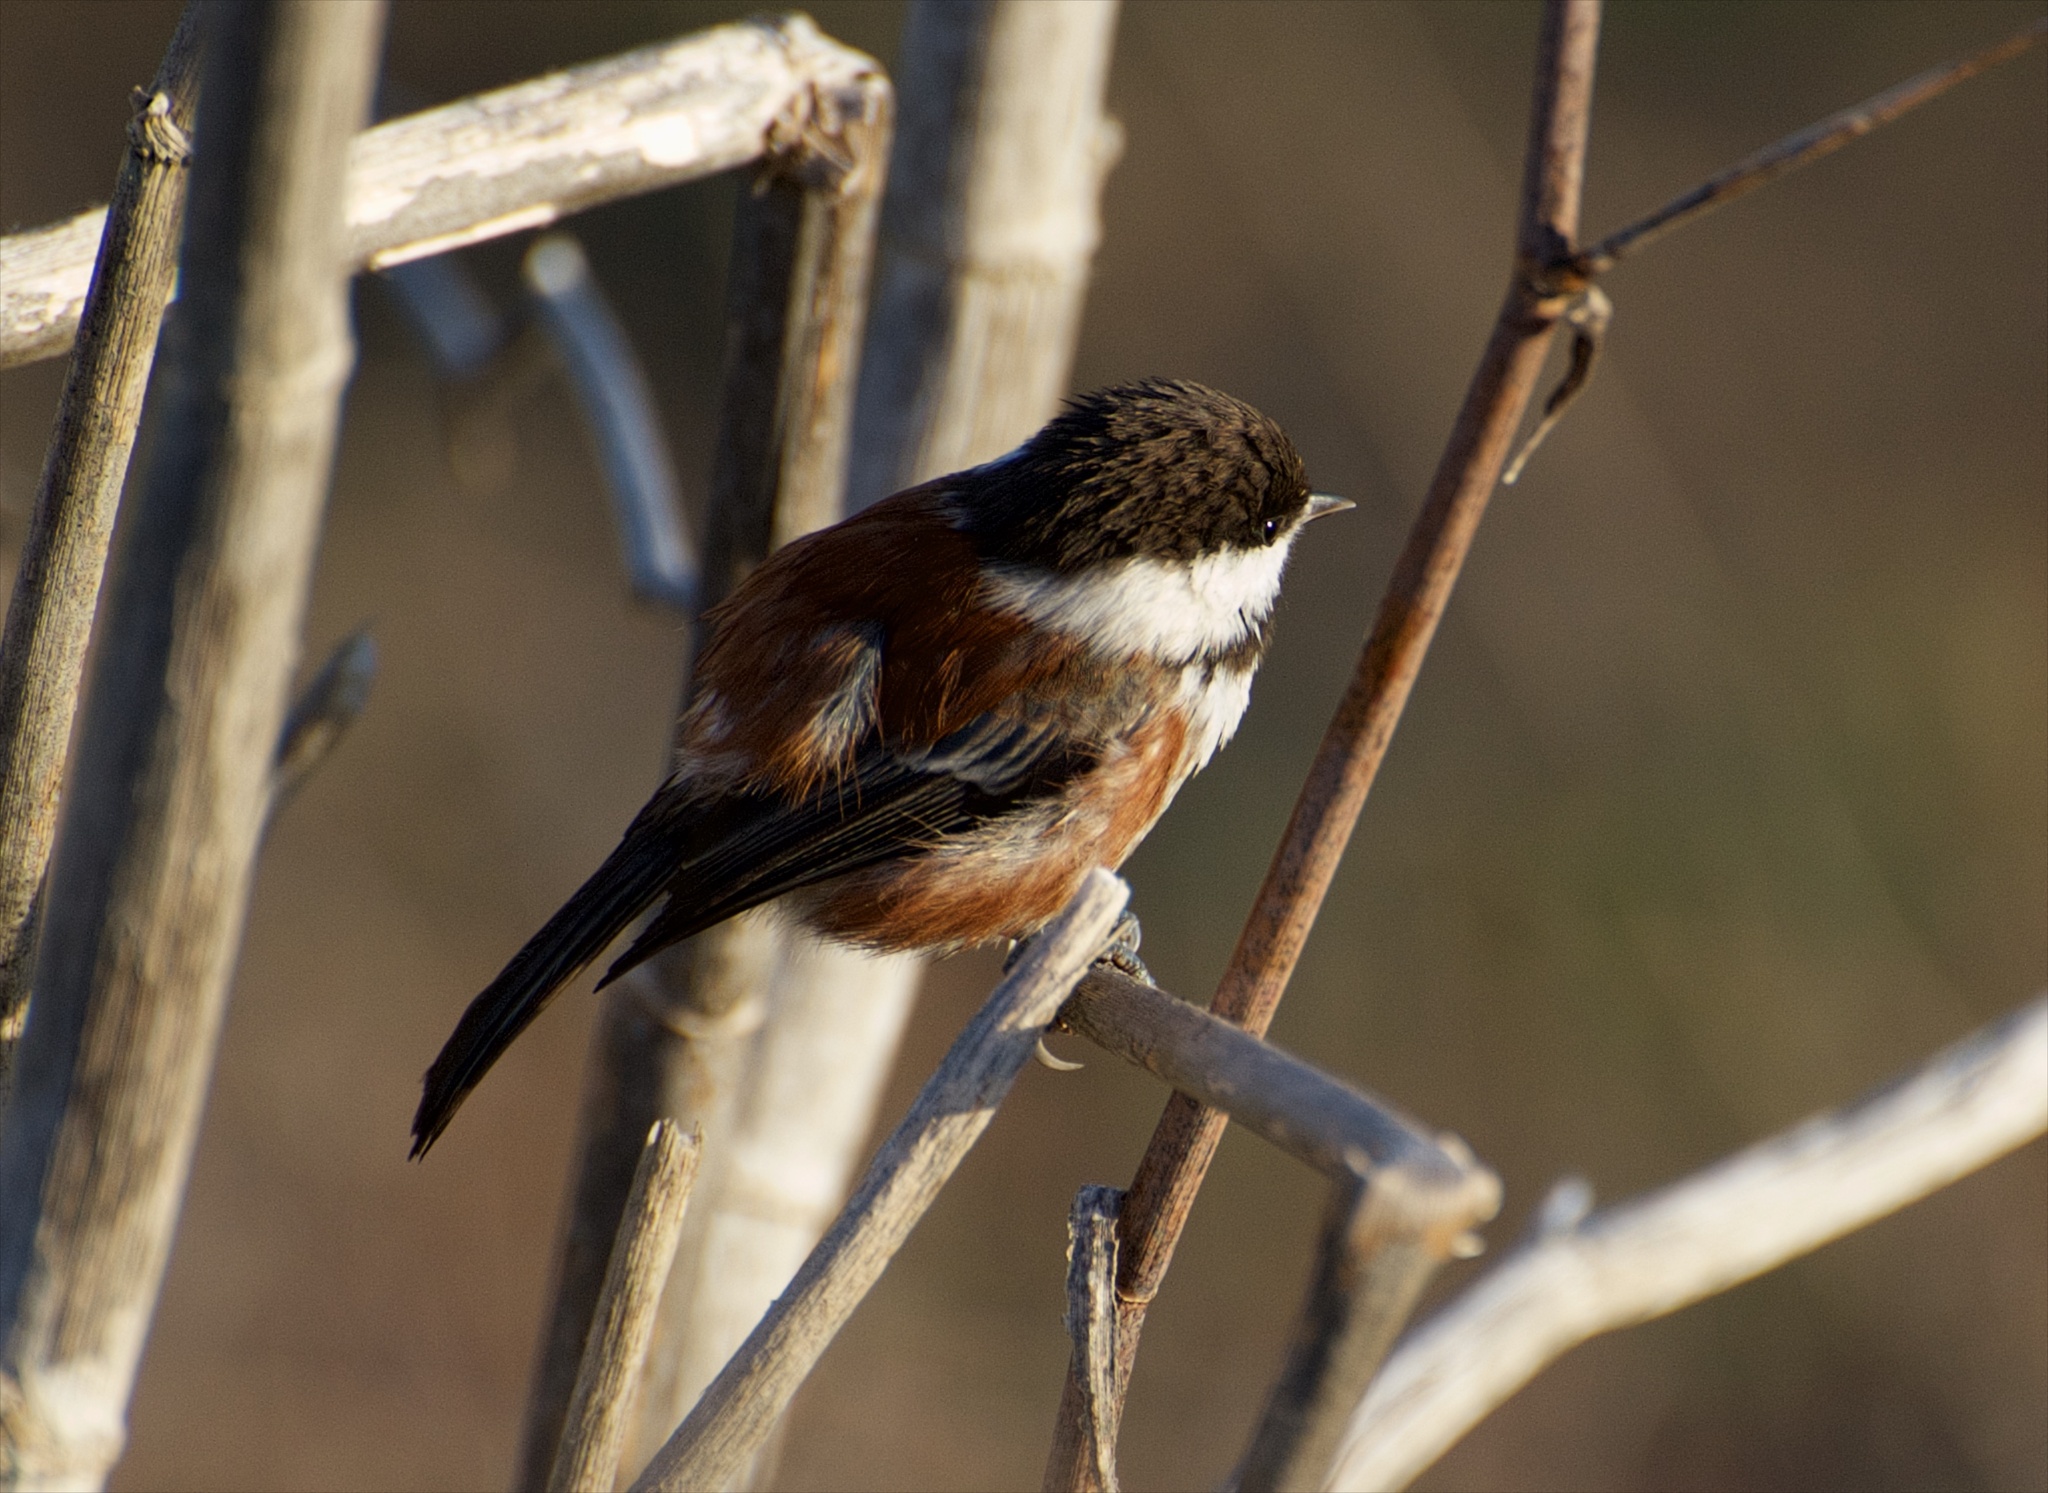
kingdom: Animalia
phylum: Chordata
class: Aves
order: Passeriformes
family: Paridae
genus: Poecile
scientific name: Poecile rufescens
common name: Chestnut-backed chickadee
